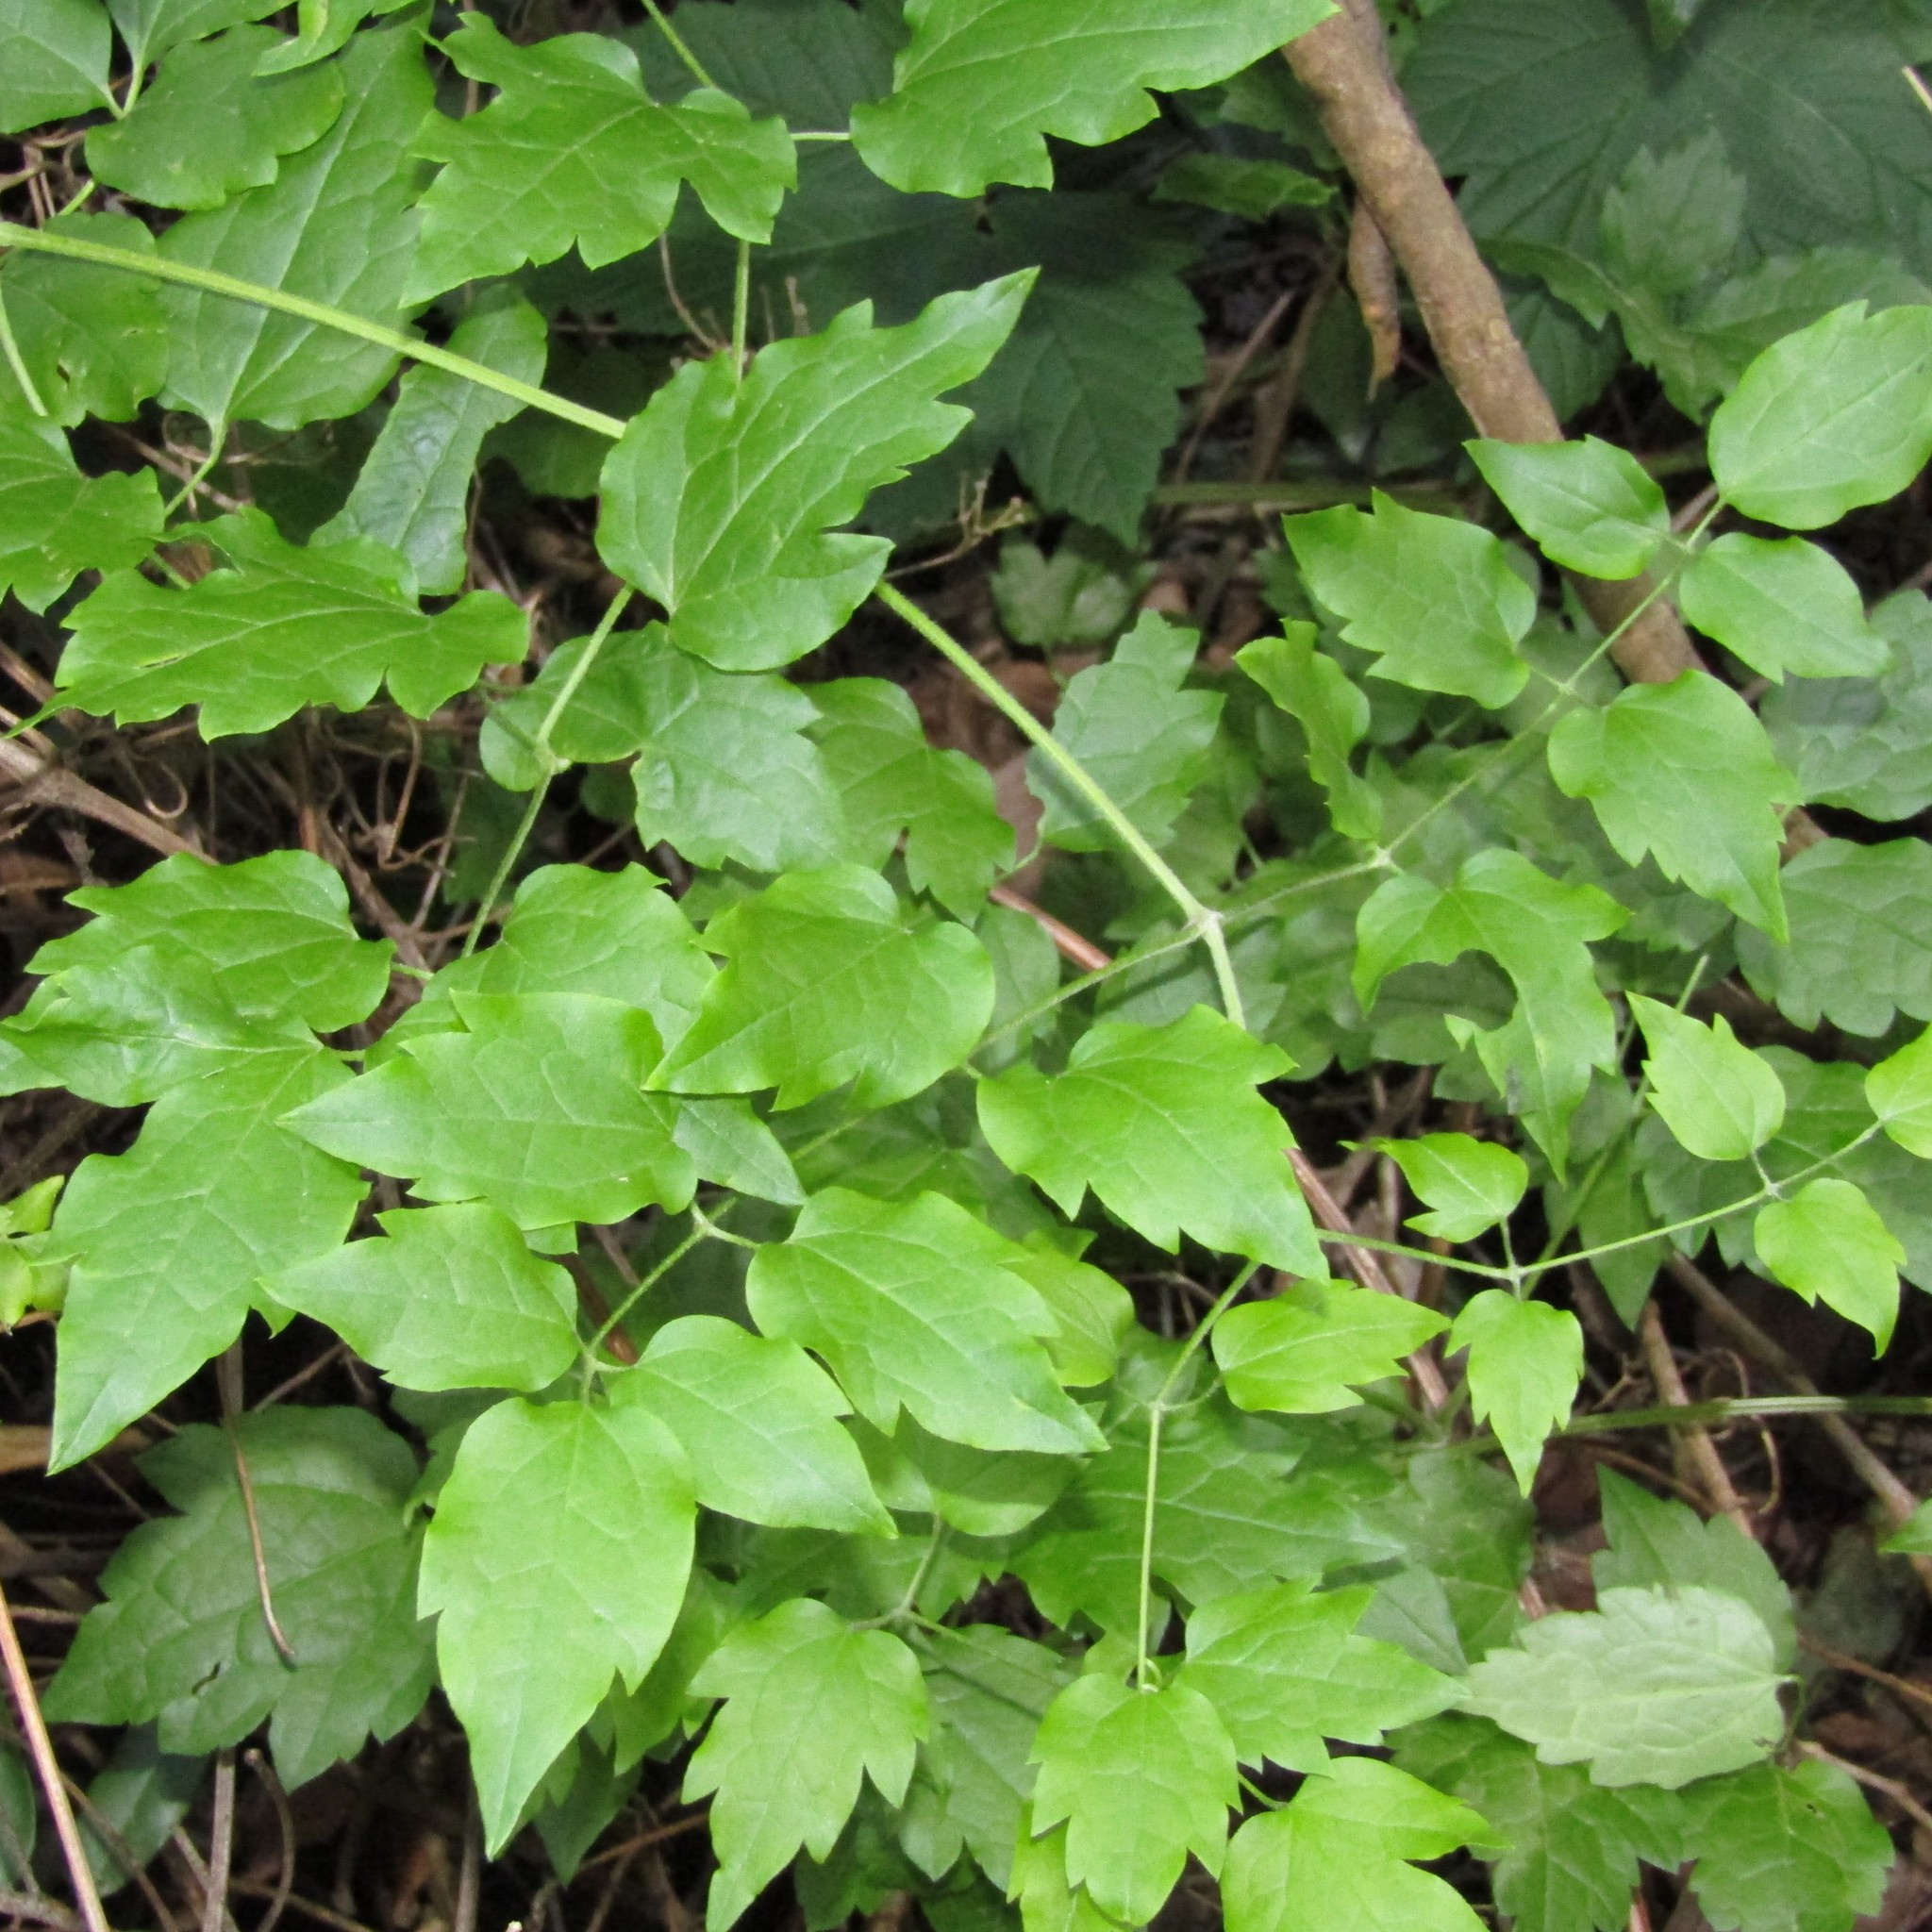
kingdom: Plantae
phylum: Tracheophyta
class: Magnoliopsida
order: Ranunculales
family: Ranunculaceae
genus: Clematis
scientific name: Clematis vitalba
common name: Evergreen clematis
